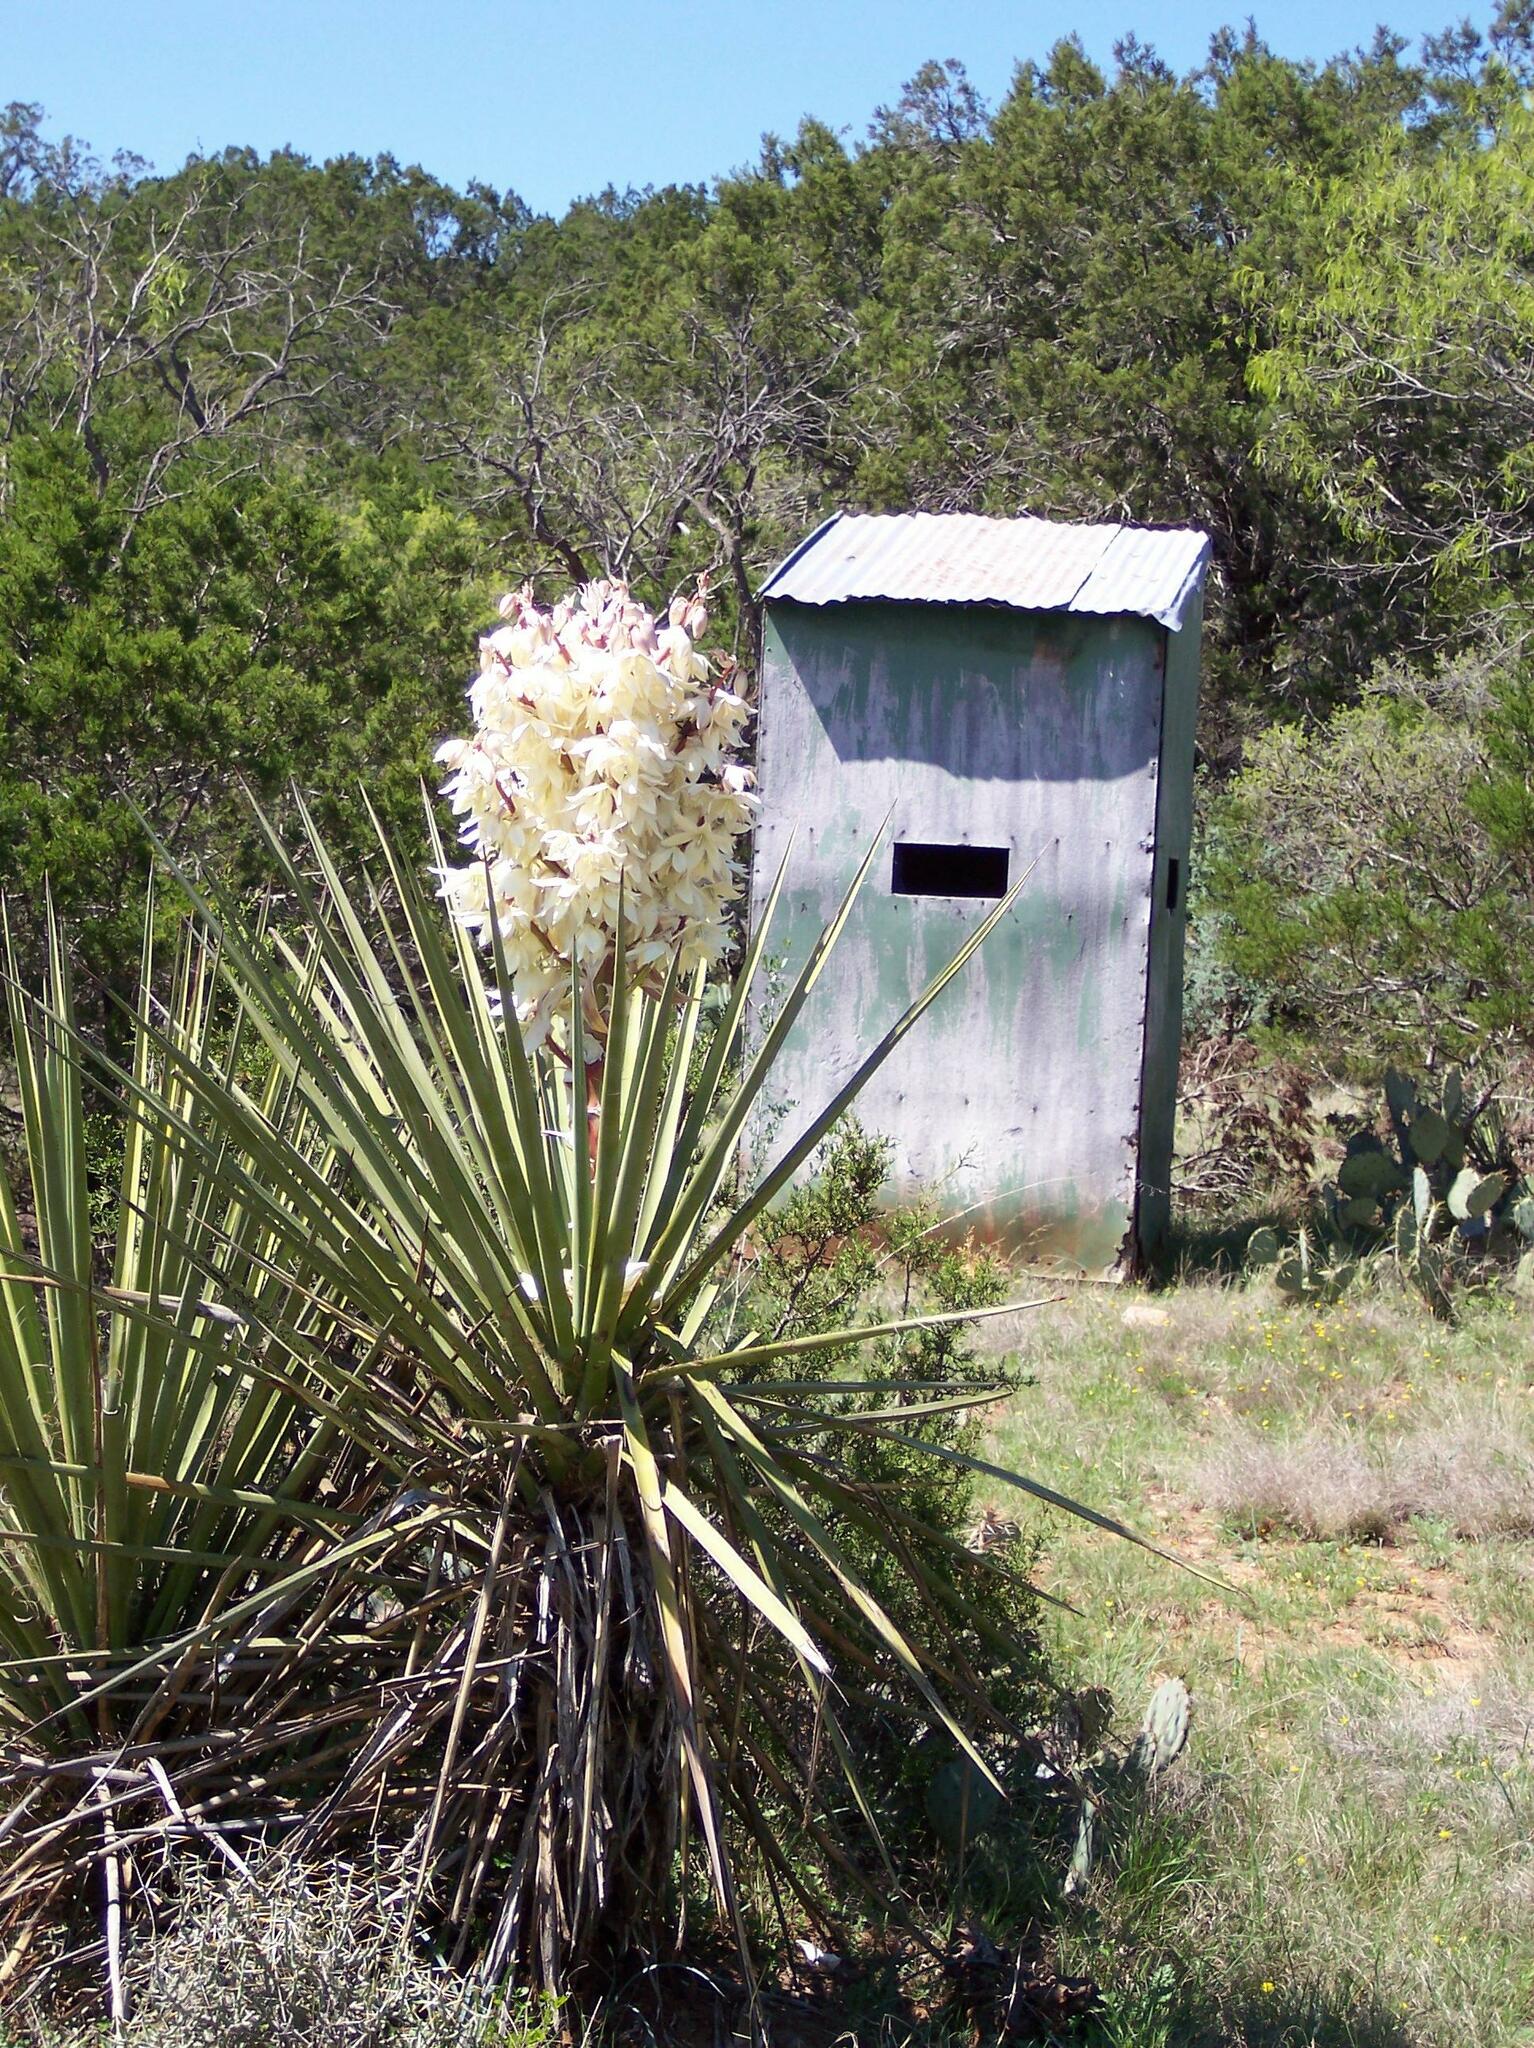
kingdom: Plantae
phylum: Tracheophyta
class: Liliopsida
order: Asparagales
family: Asparagaceae
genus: Yucca
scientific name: Yucca treculiana
